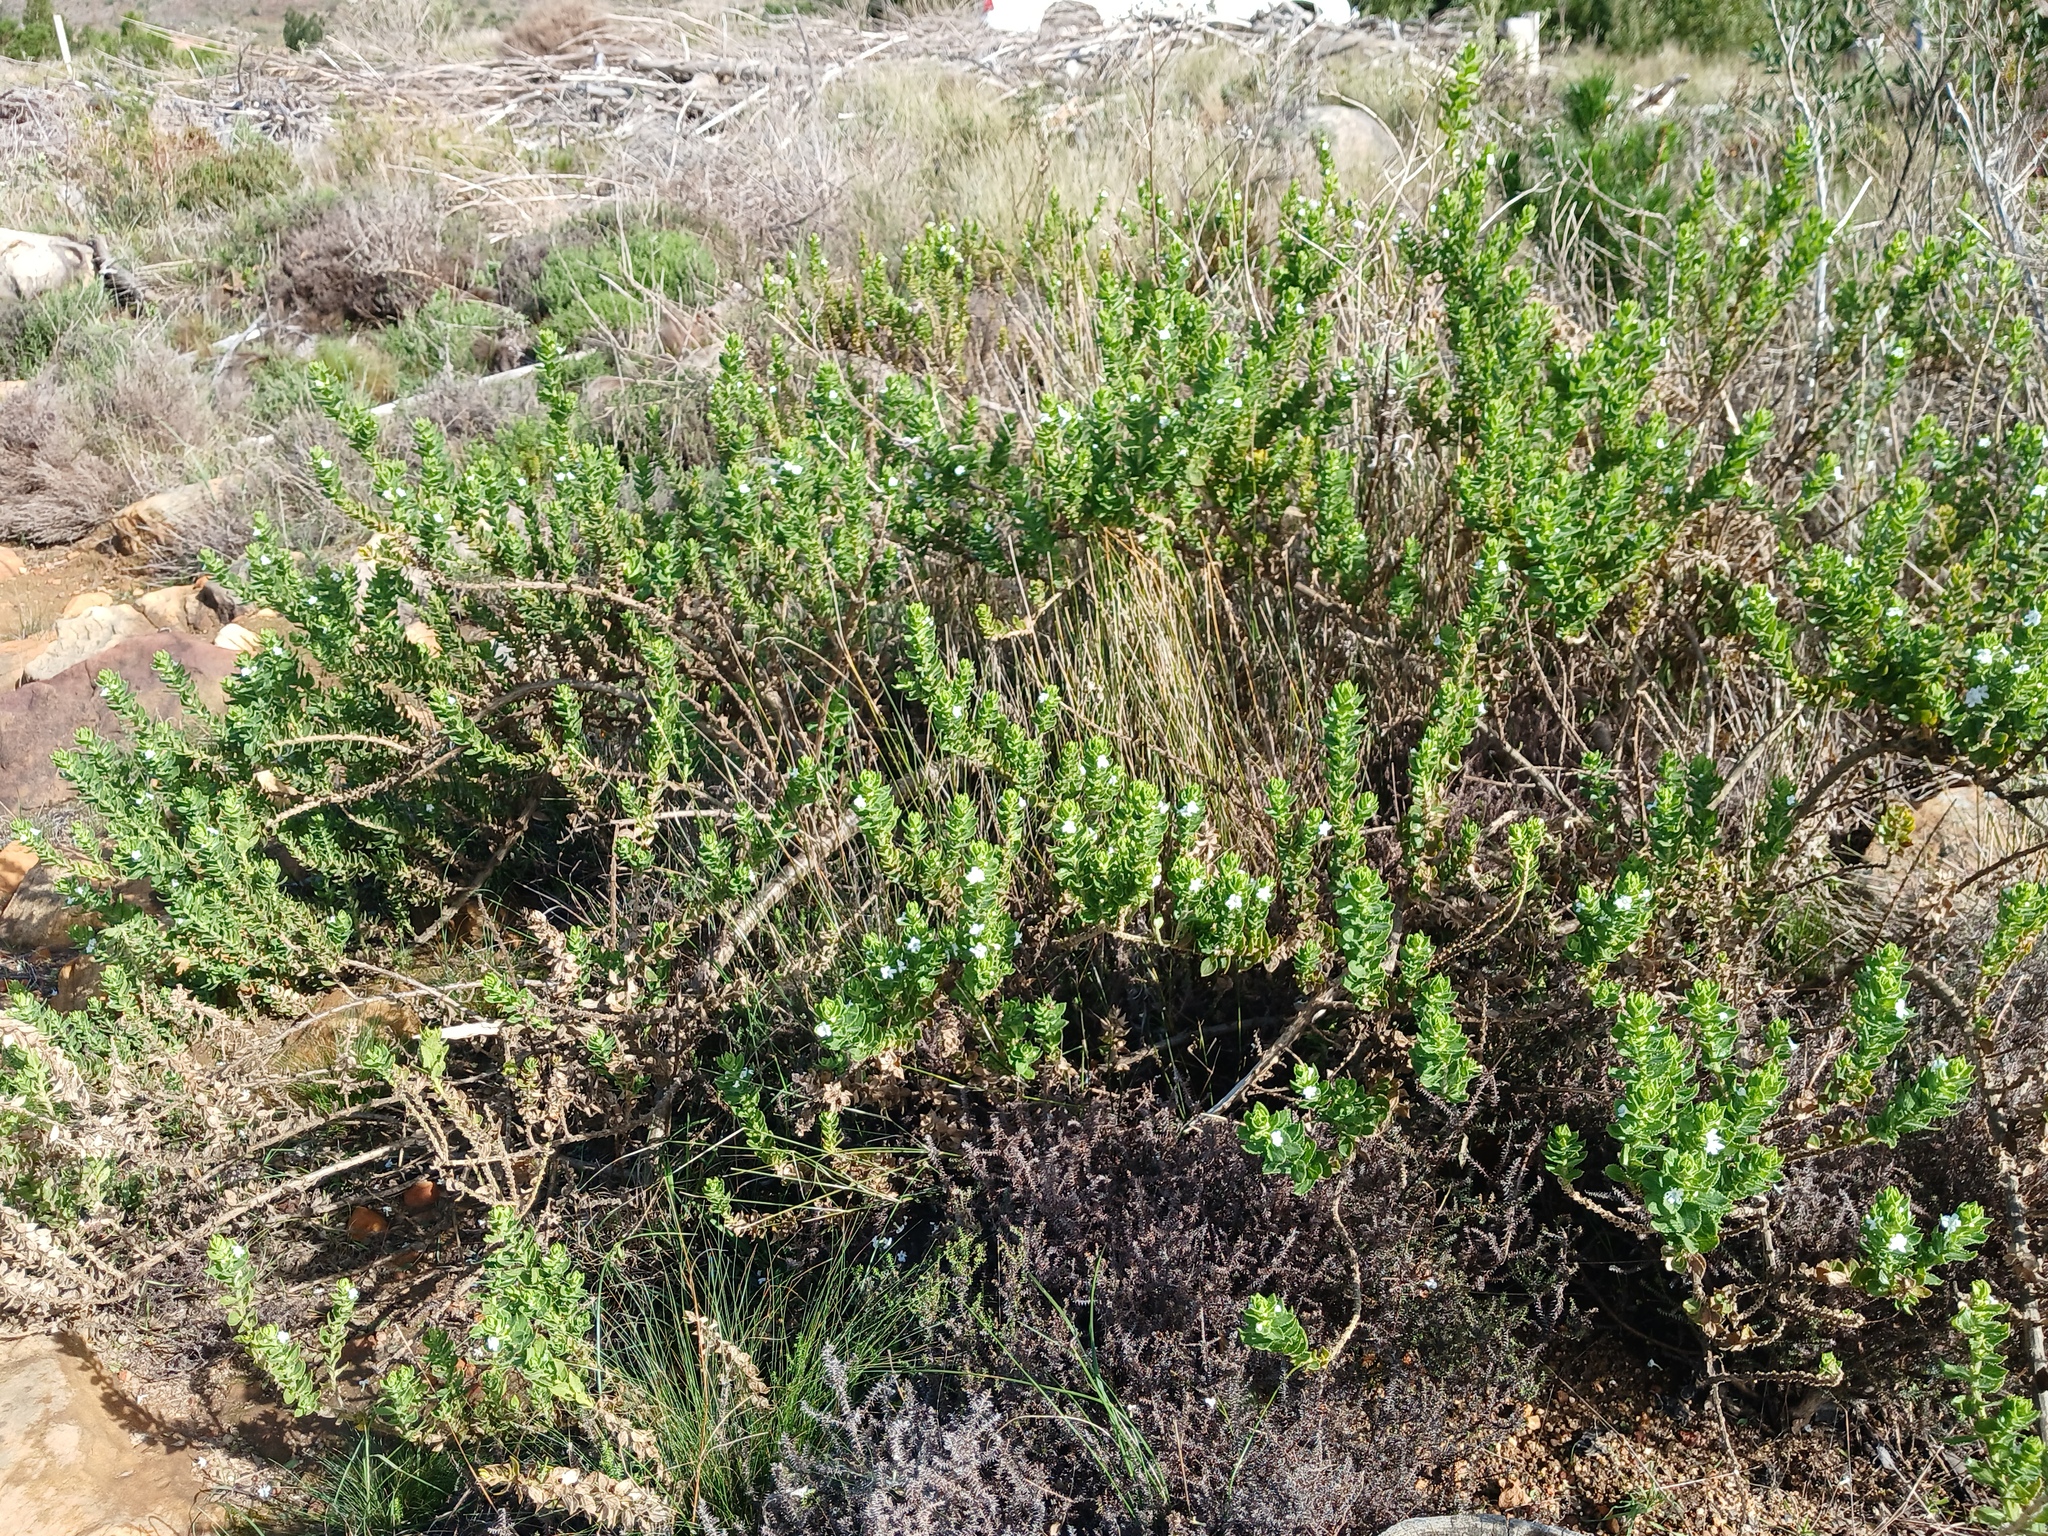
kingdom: Plantae
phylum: Tracheophyta
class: Magnoliopsida
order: Lamiales
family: Scrophulariaceae
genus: Oftia
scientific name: Oftia africana
